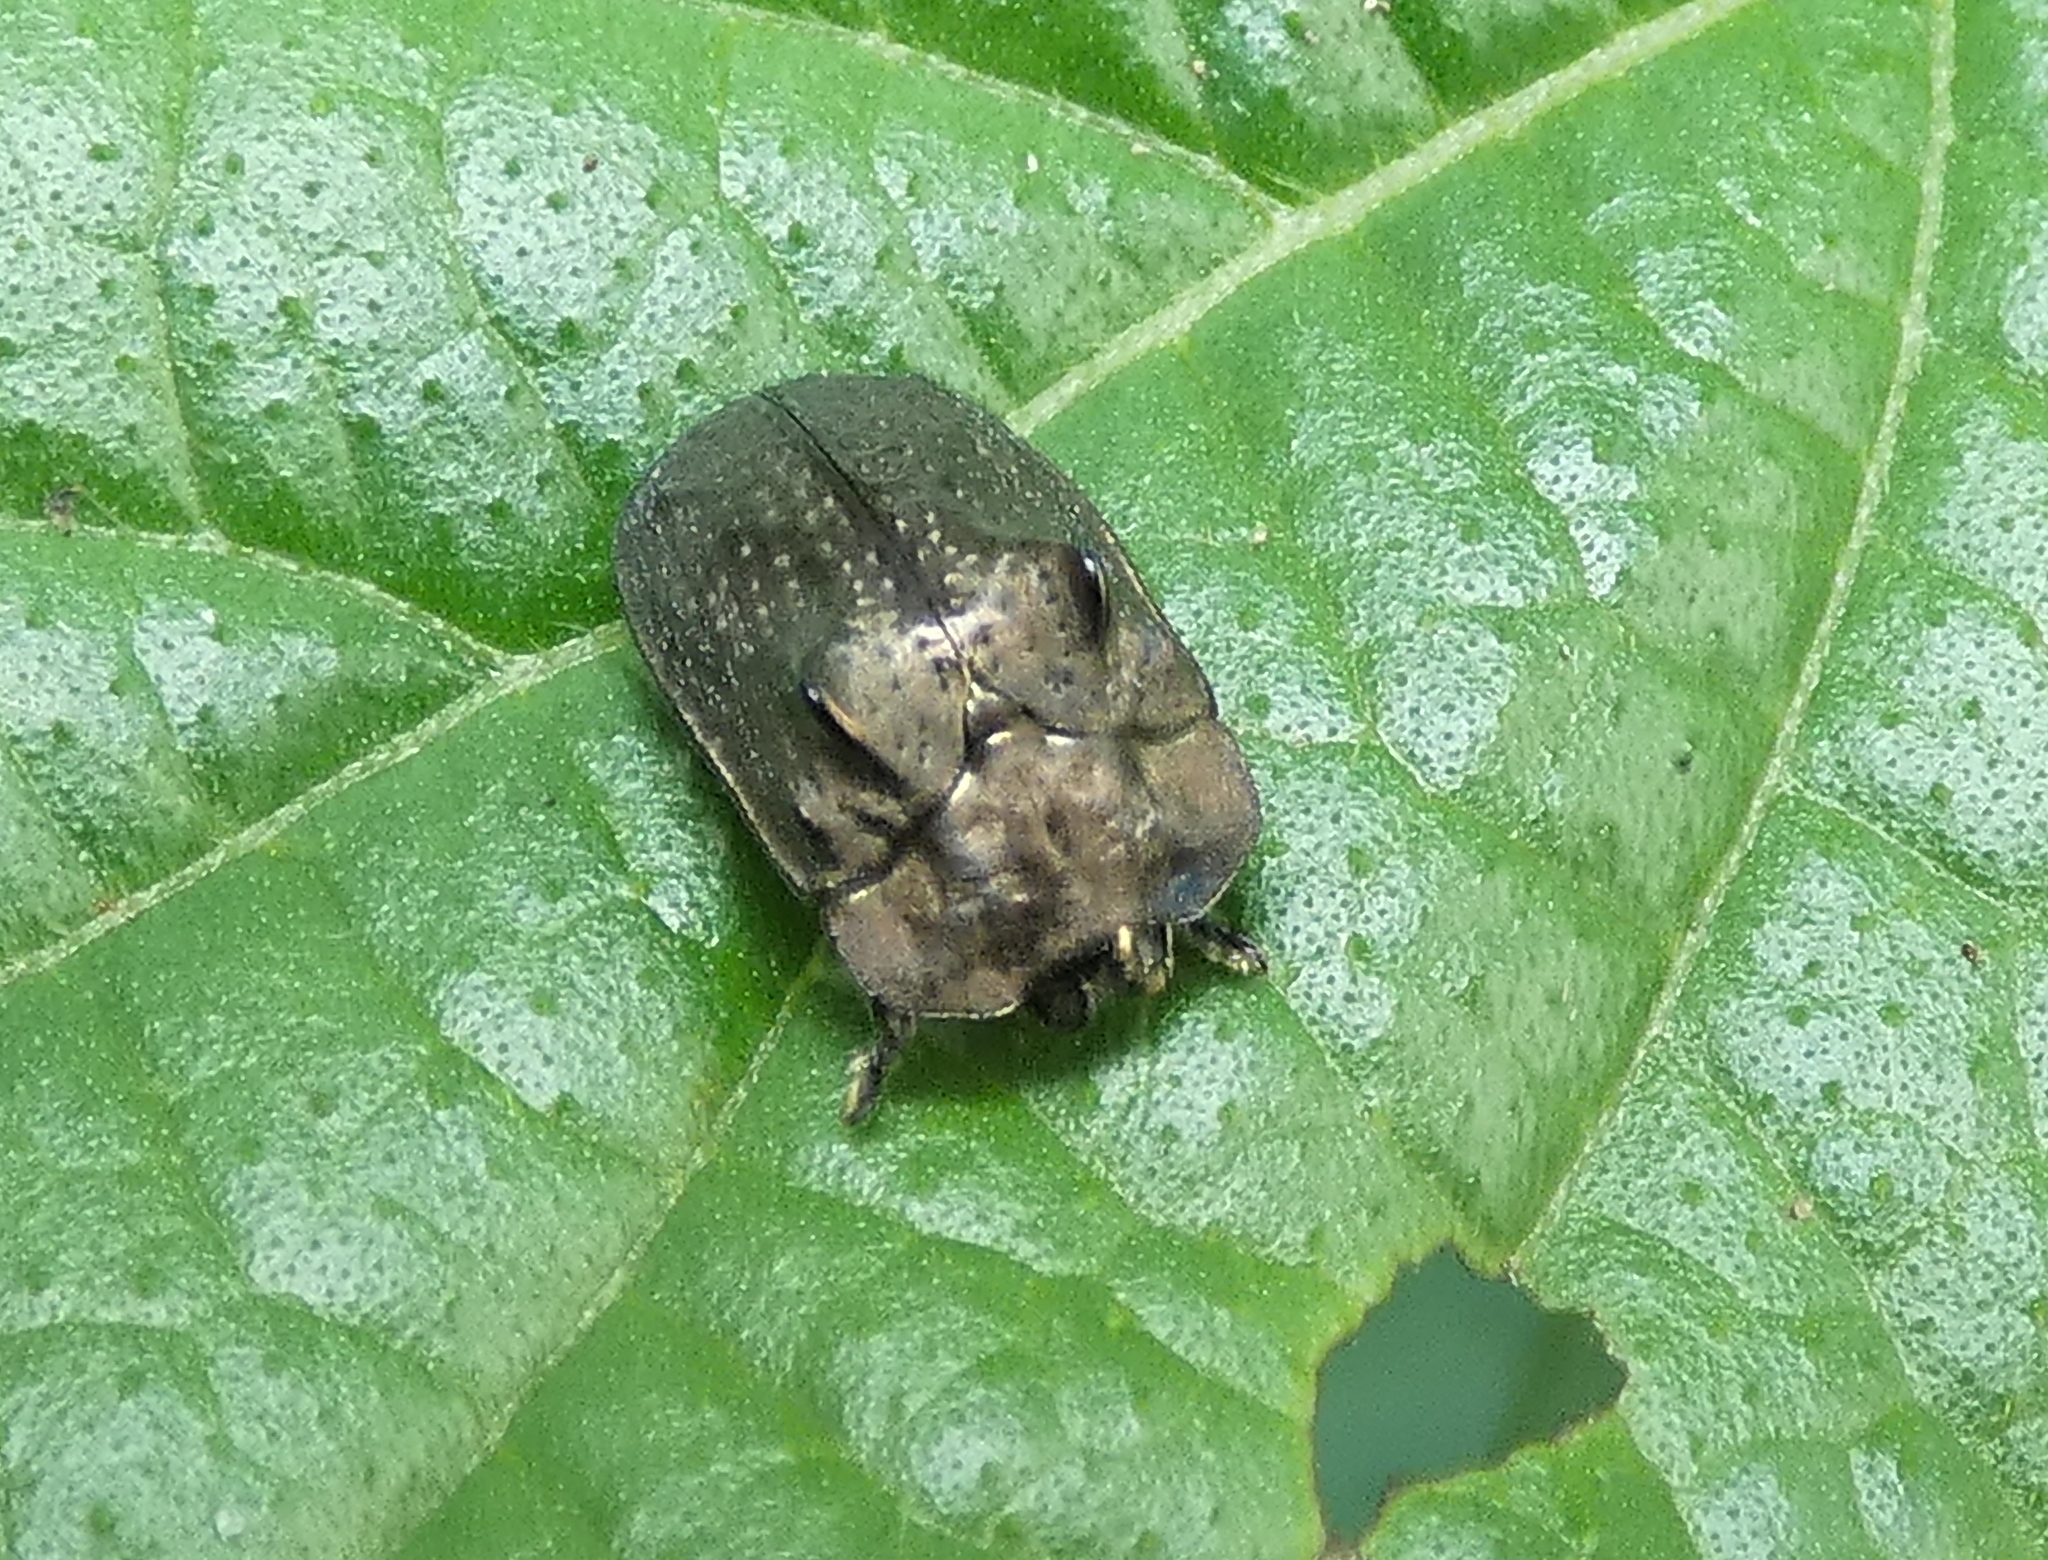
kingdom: Animalia
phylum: Arthropoda
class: Insecta
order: Coleoptera
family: Chrysomelidae
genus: Chlamydocassis
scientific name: Chlamydocassis bicornuta
